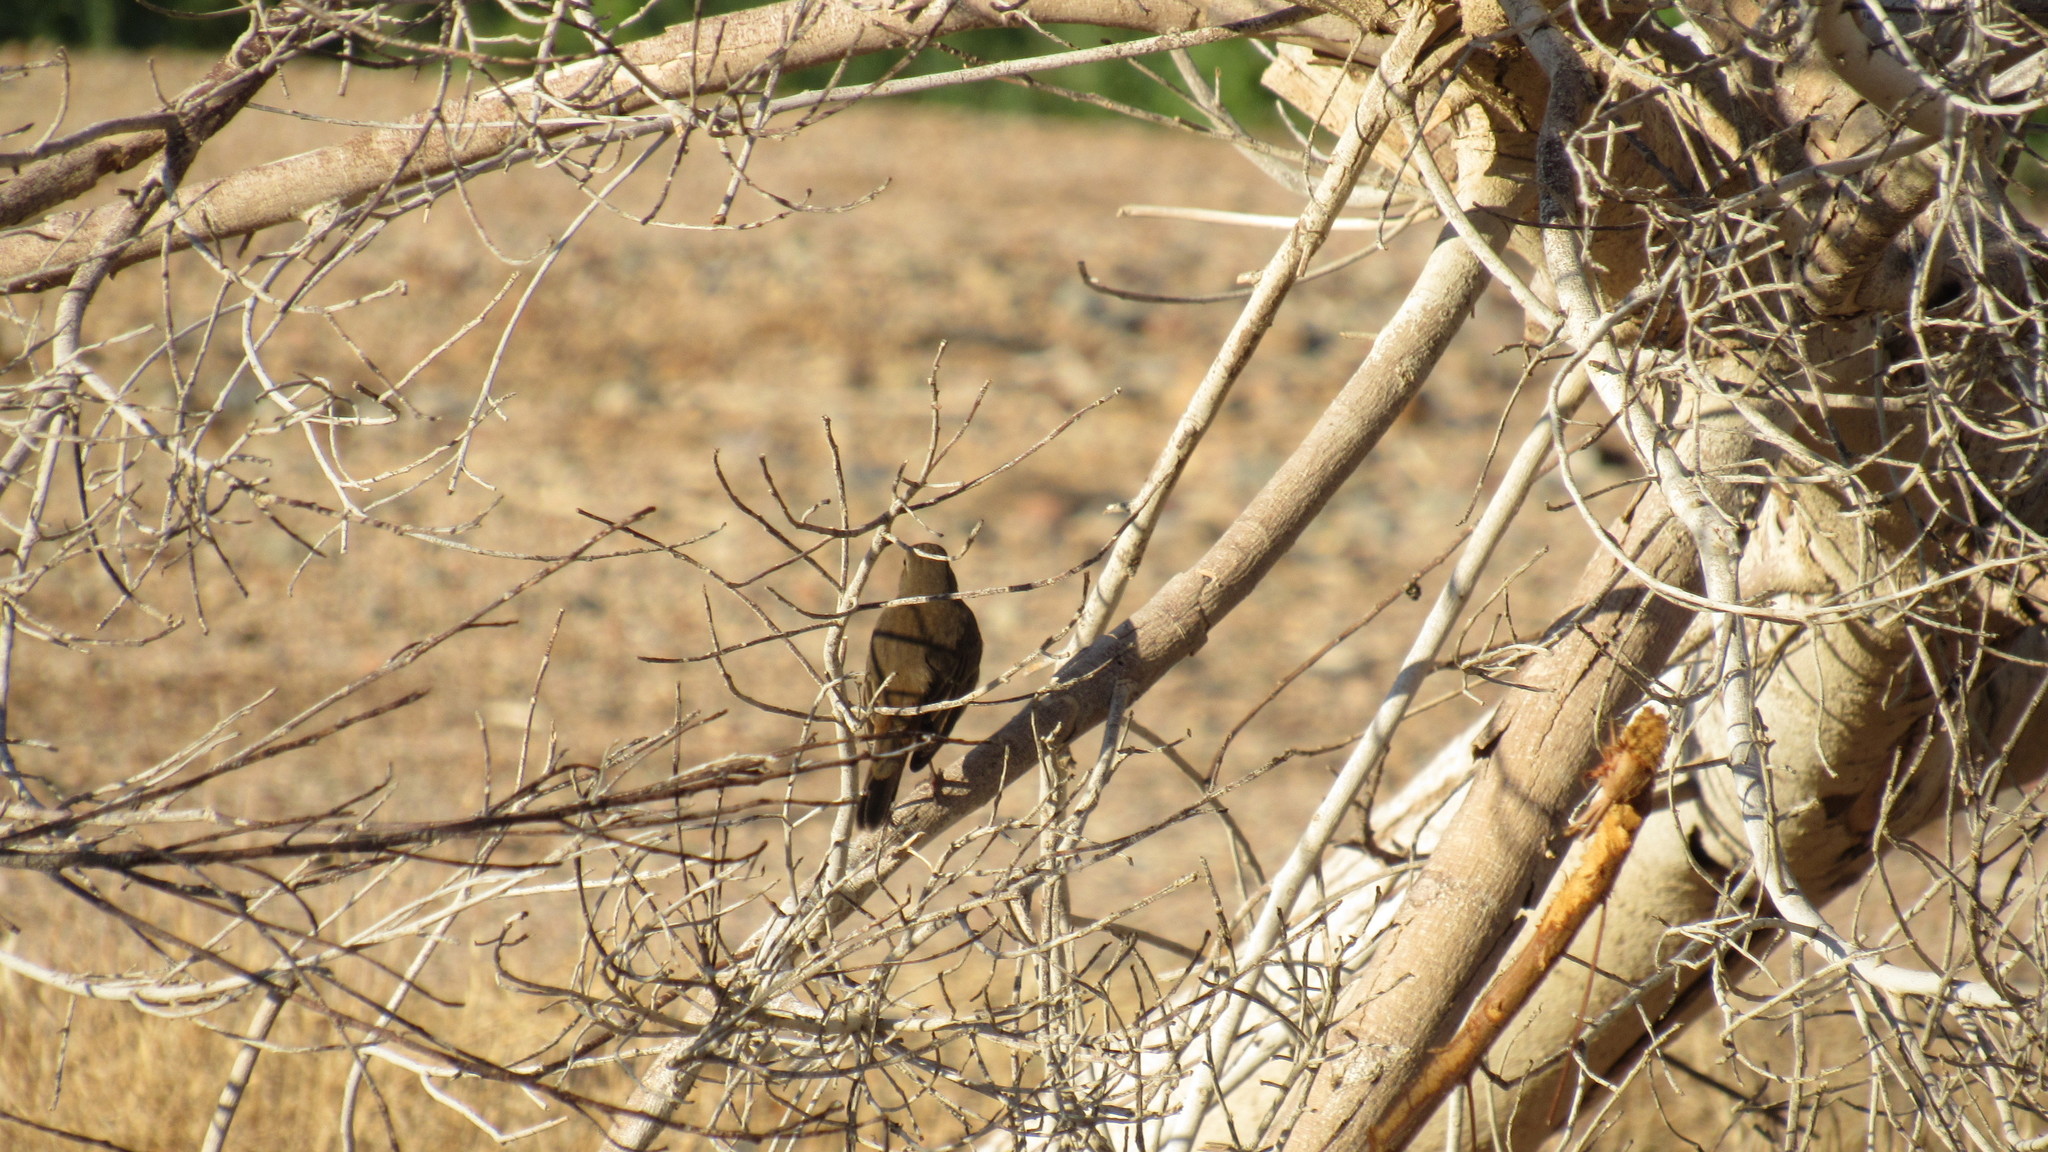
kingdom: Animalia
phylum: Chordata
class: Aves
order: Passeriformes
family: Passeridae
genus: Passer
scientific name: Passer domesticus
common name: House sparrow
